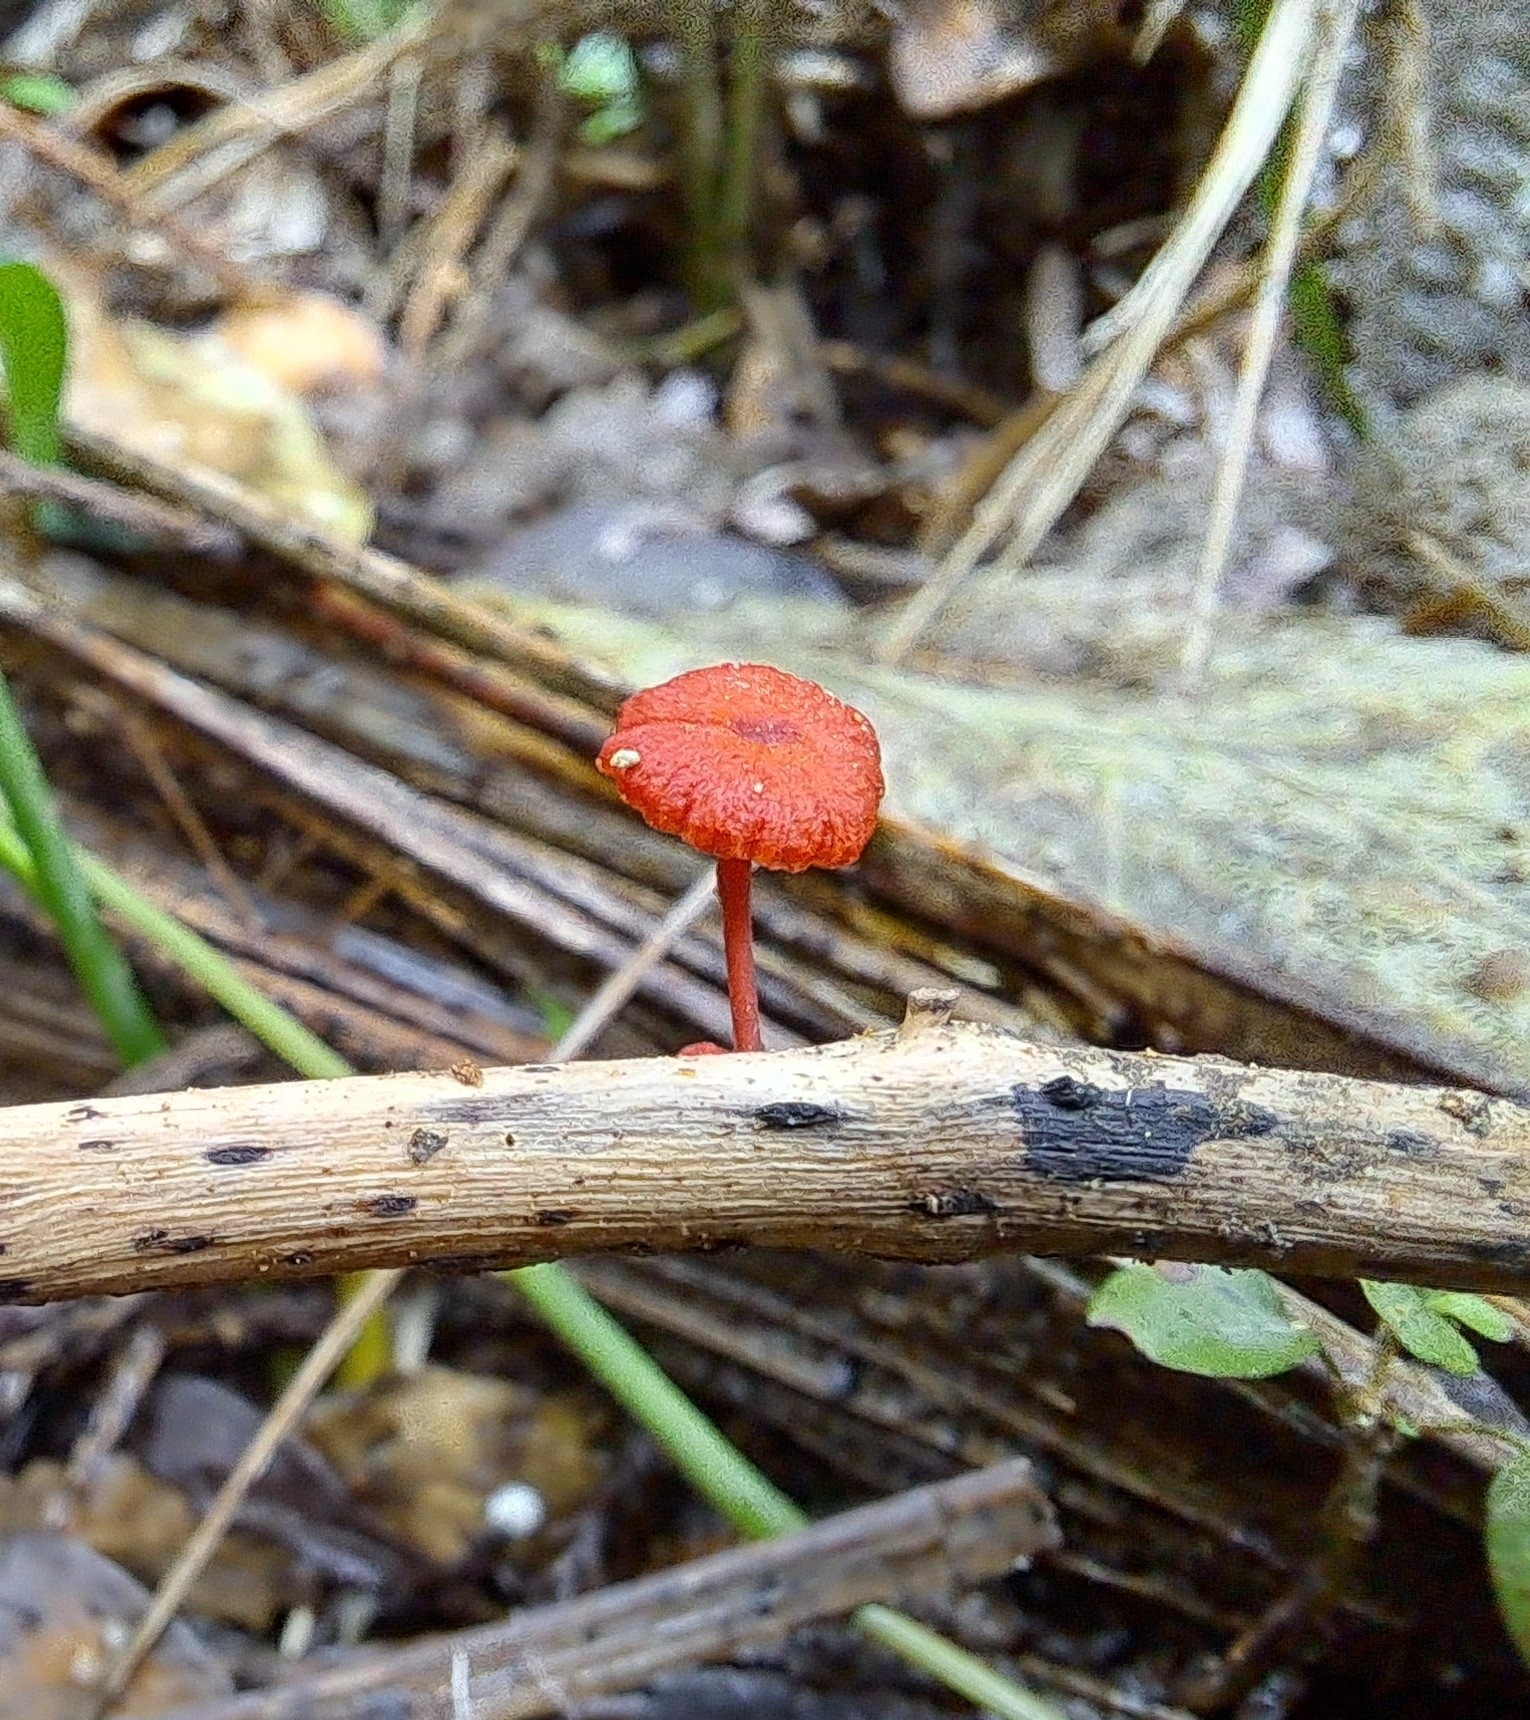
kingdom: Fungi
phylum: Basidiomycota
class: Agaricomycetes
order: Agaricales
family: Mycenaceae
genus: Cruentomycena
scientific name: Cruentomycena viscidocruenta
